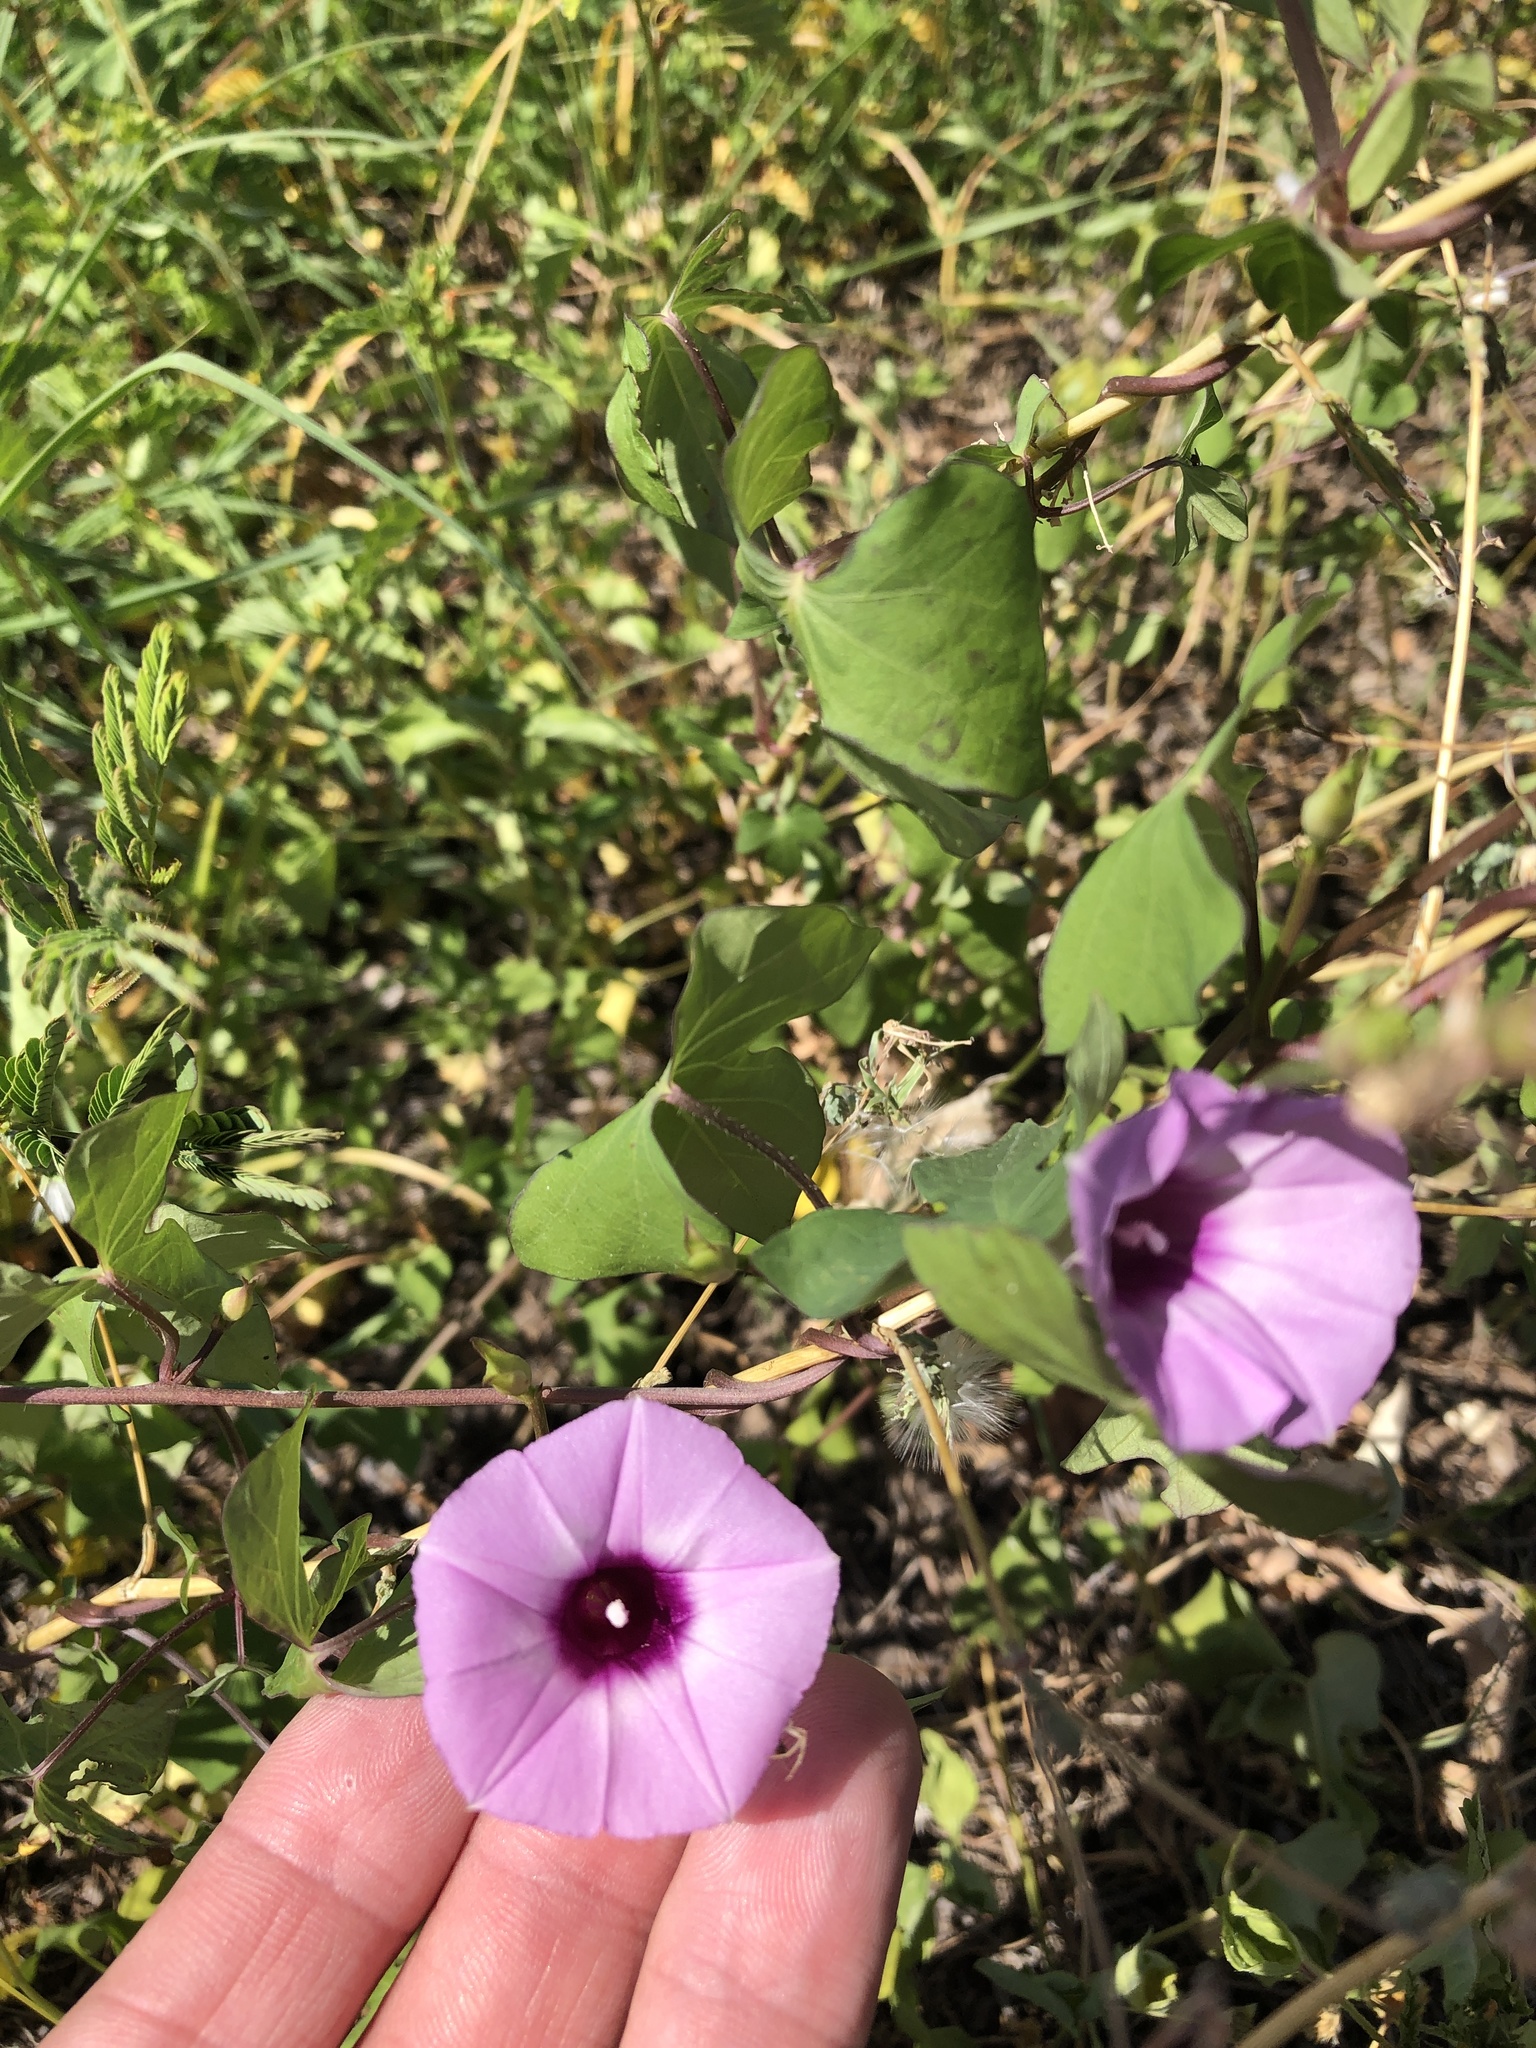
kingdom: Plantae
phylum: Tracheophyta
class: Magnoliopsida
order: Solanales
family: Convolvulaceae
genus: Ipomoea
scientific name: Ipomoea cordatotriloba
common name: Cotton morning glory
